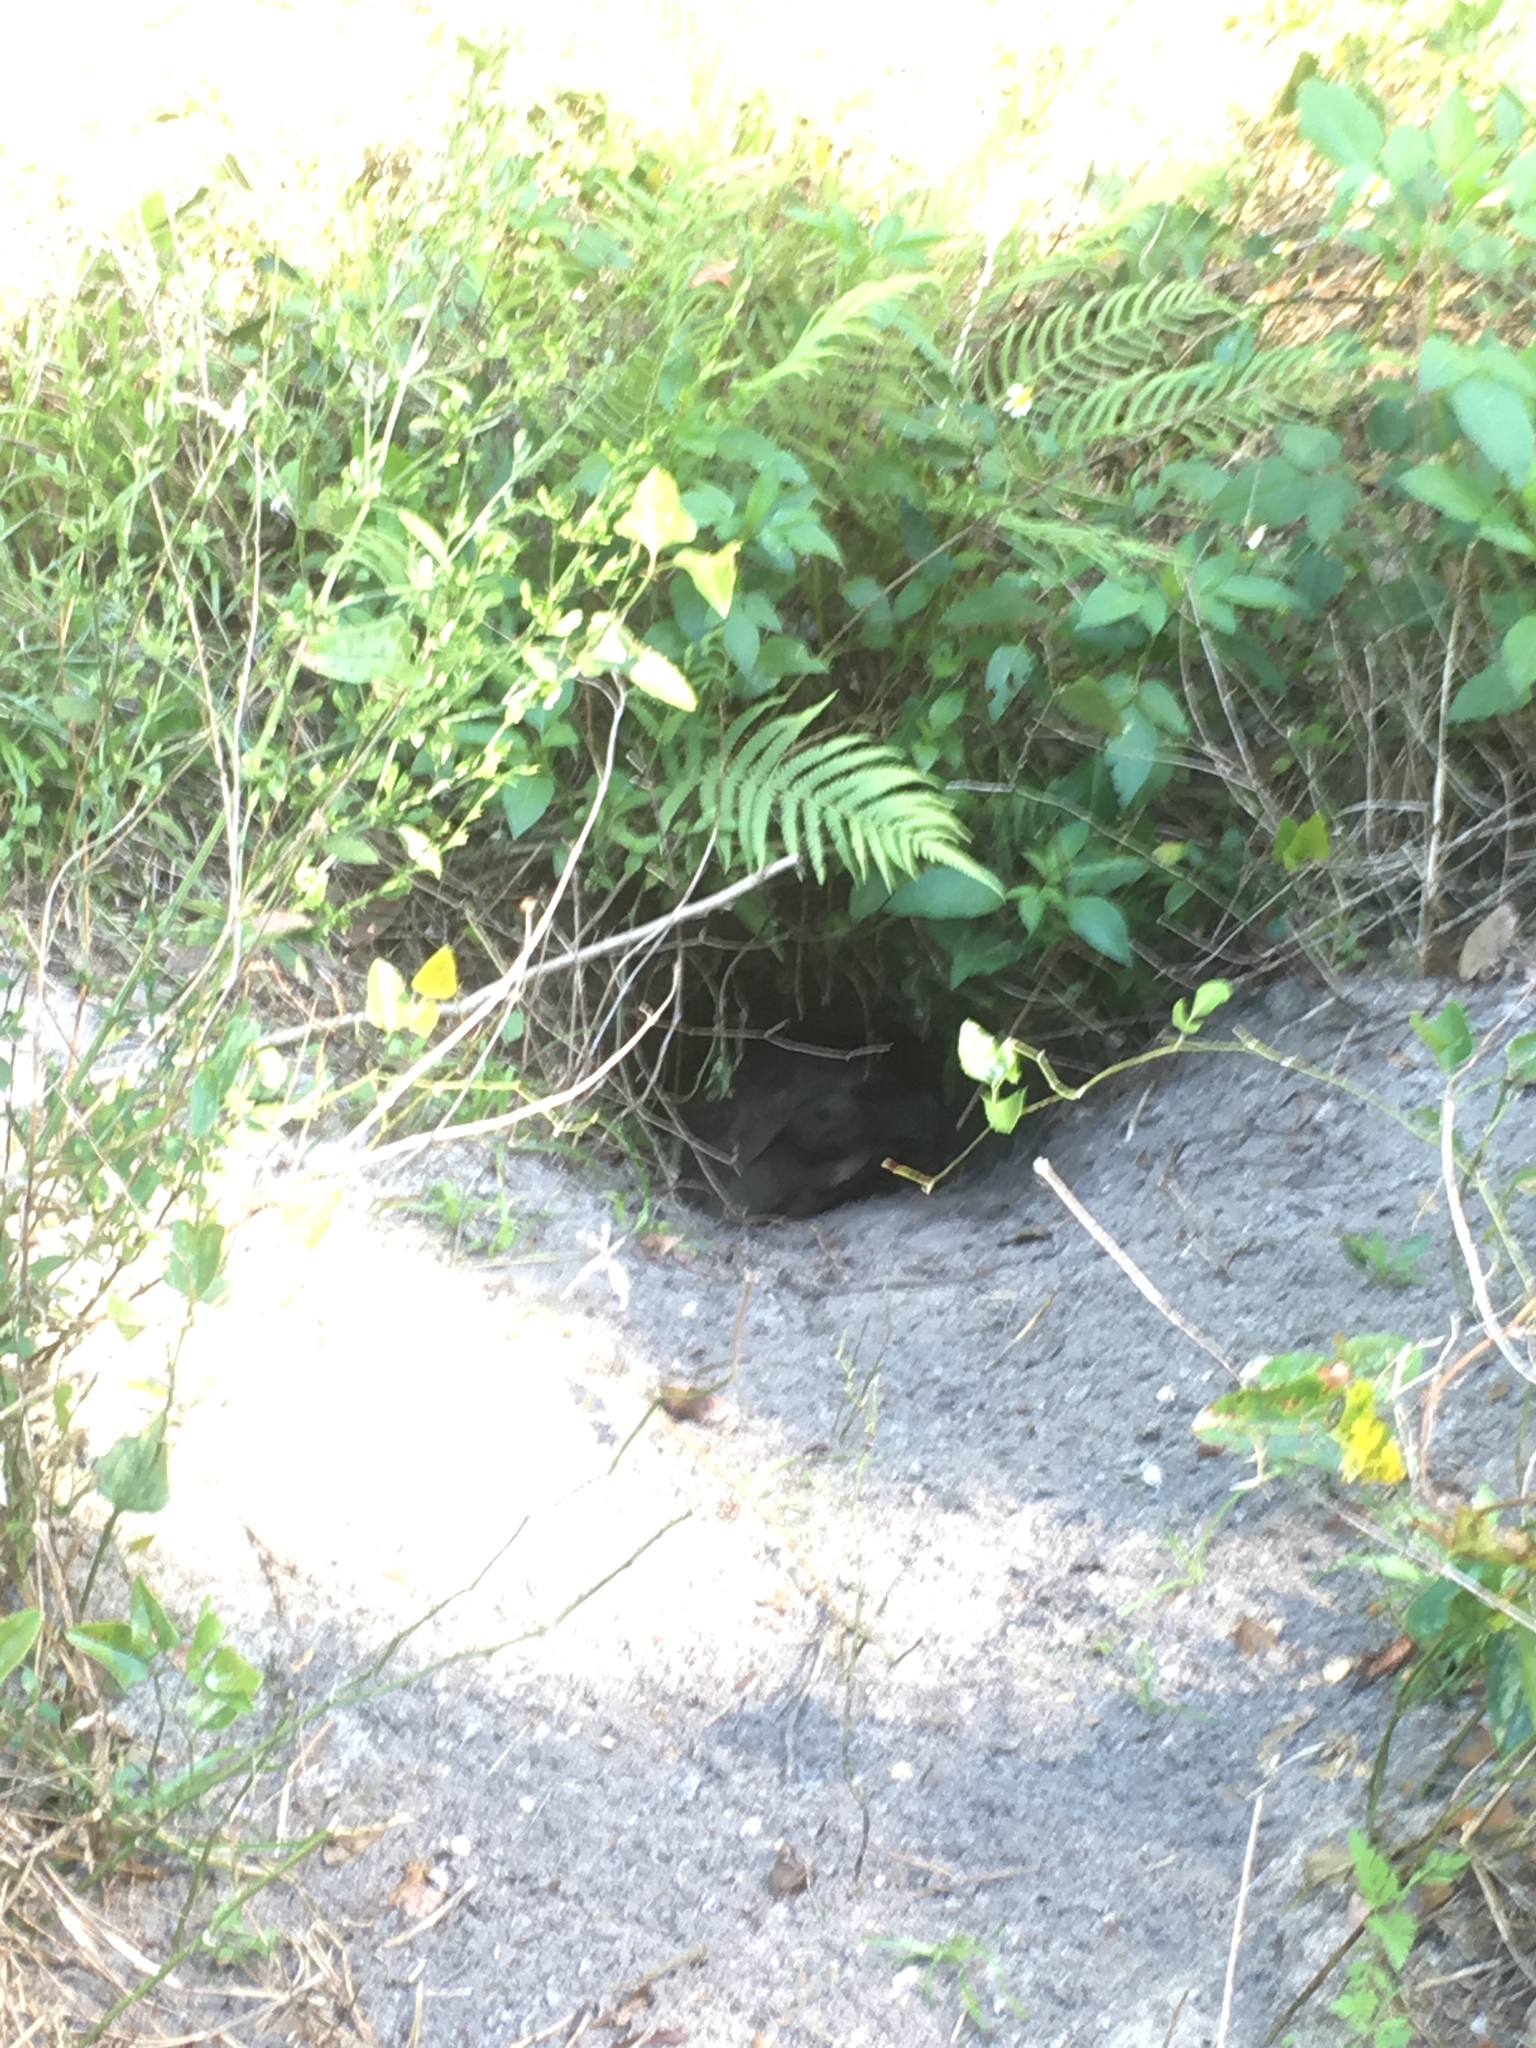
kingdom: Animalia
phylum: Chordata
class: Testudines
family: Testudinidae
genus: Gopherus
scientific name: Gopherus polyphemus
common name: Florida gopher tortoise
